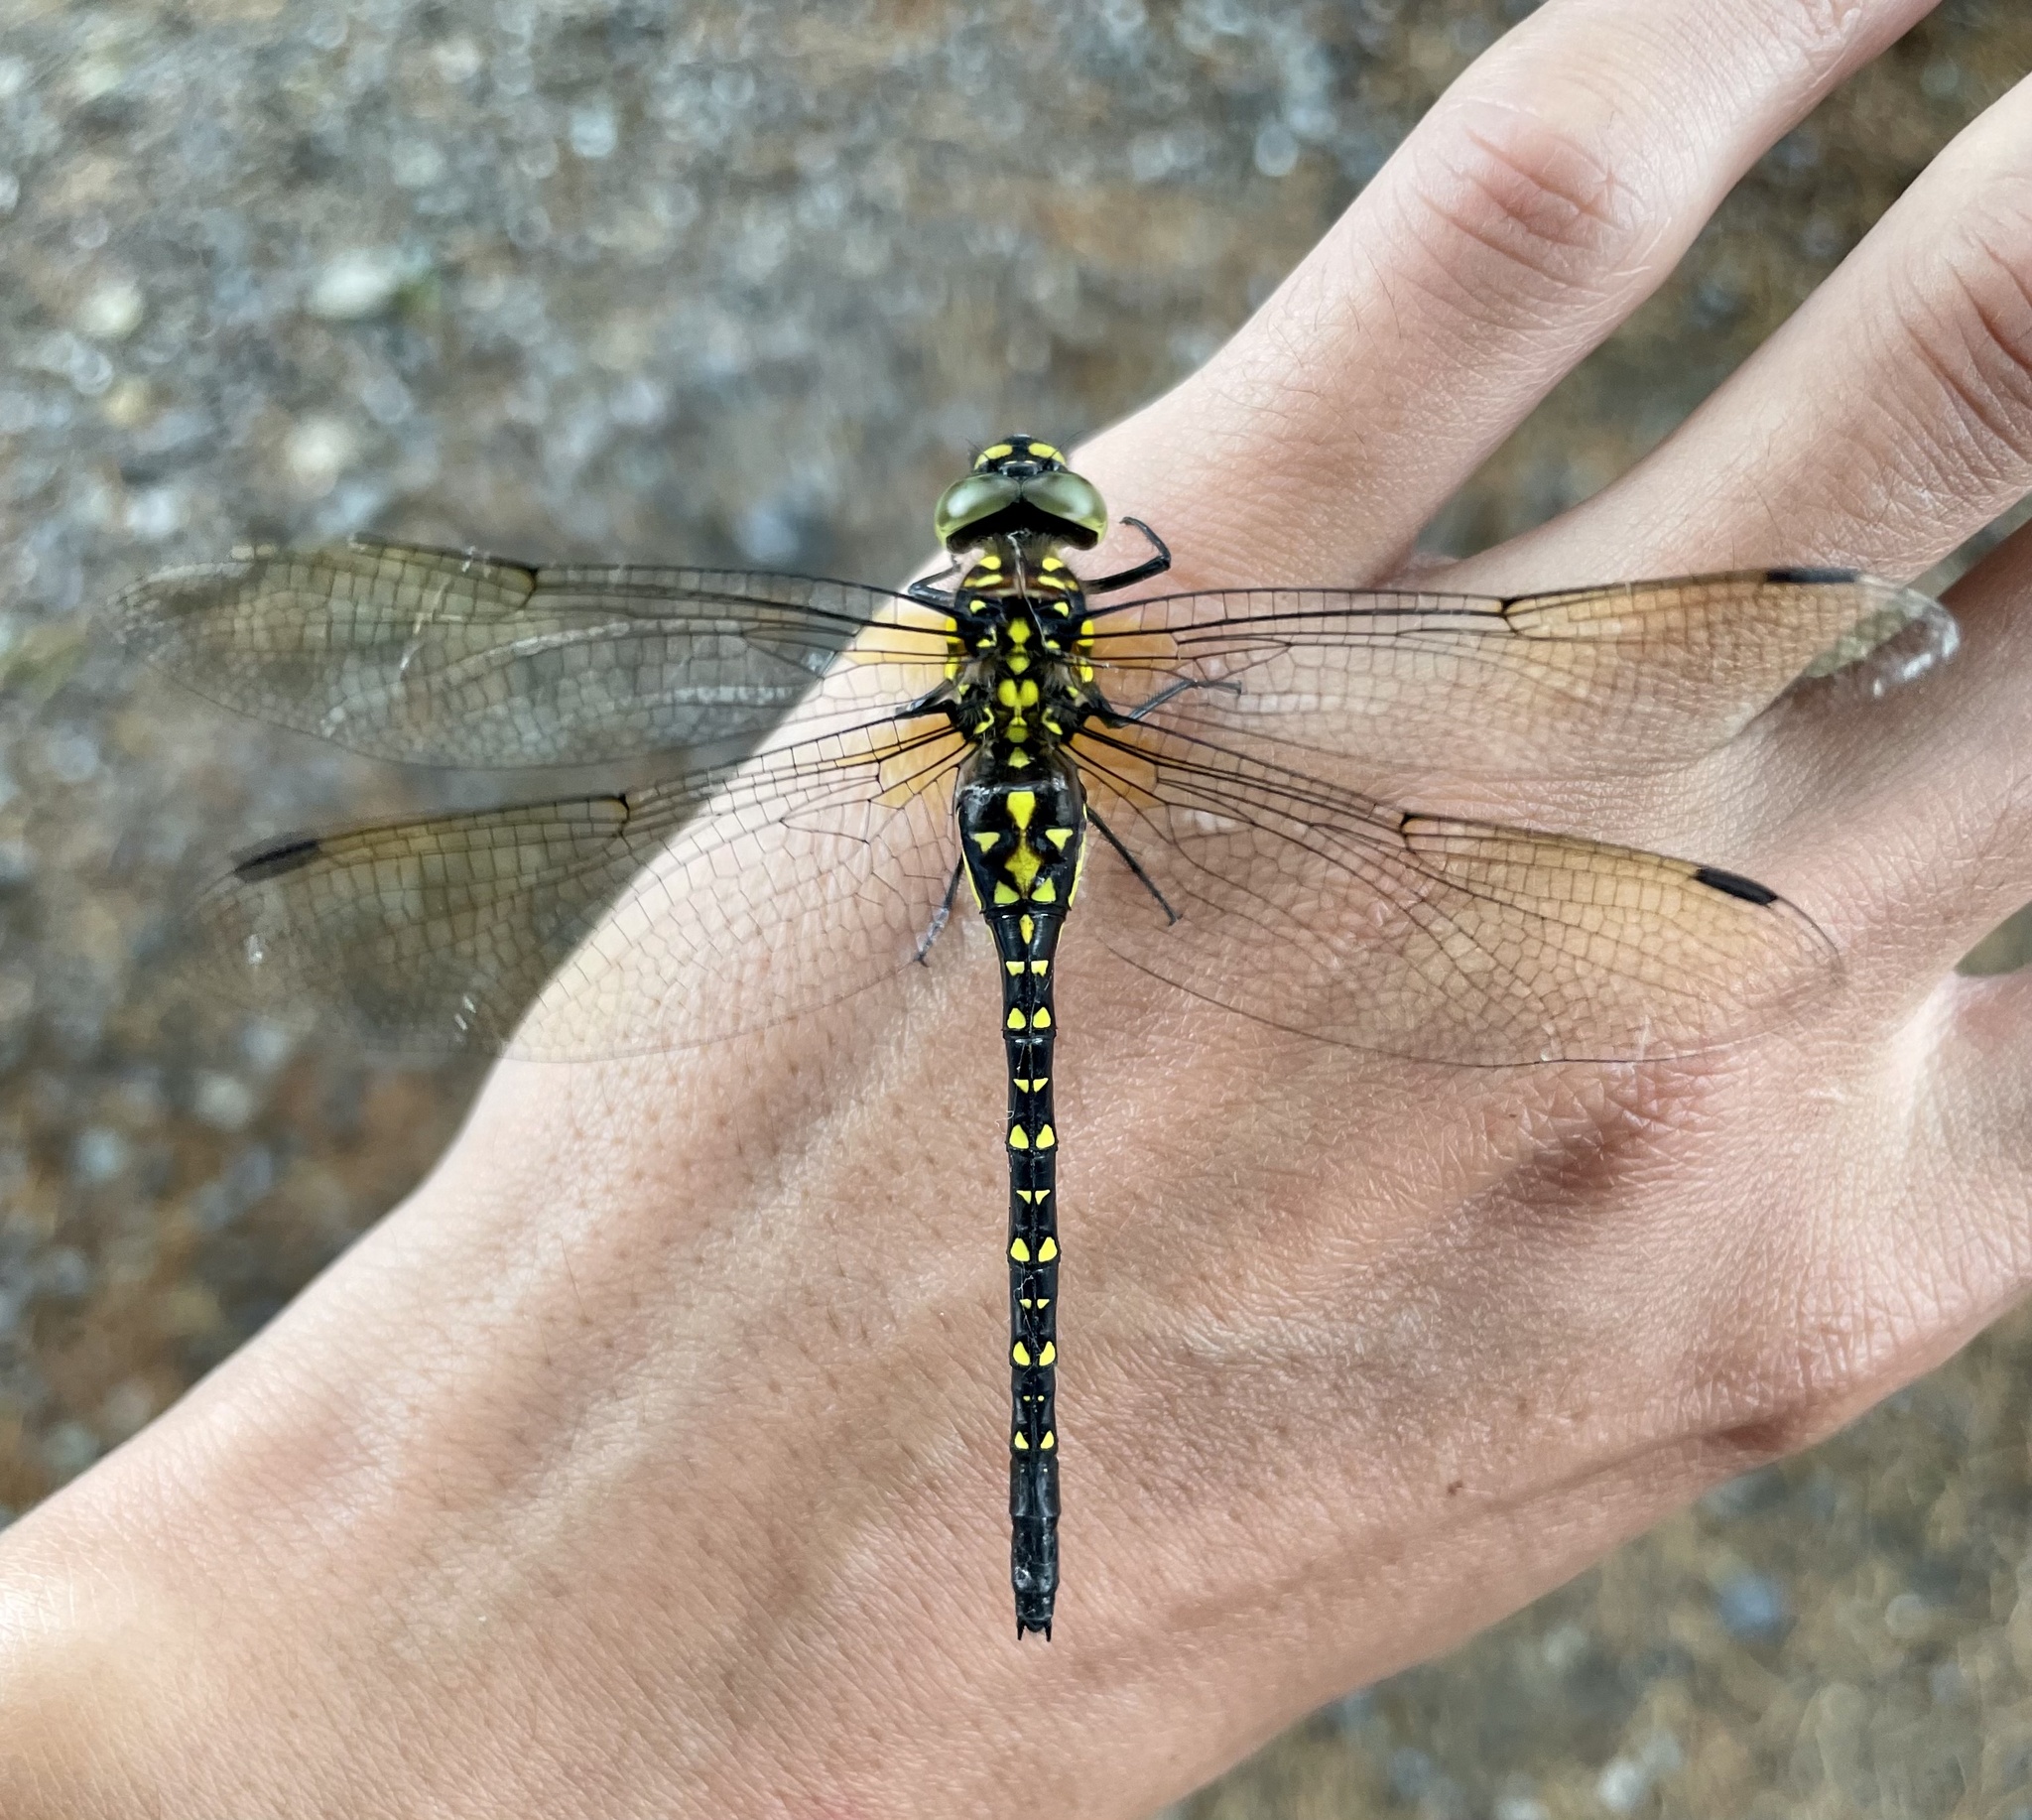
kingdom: Animalia
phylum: Arthropoda
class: Insecta
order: Odonata
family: Aeshnidae
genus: Sarasaeschna
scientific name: Sarasaeschna pryeri
